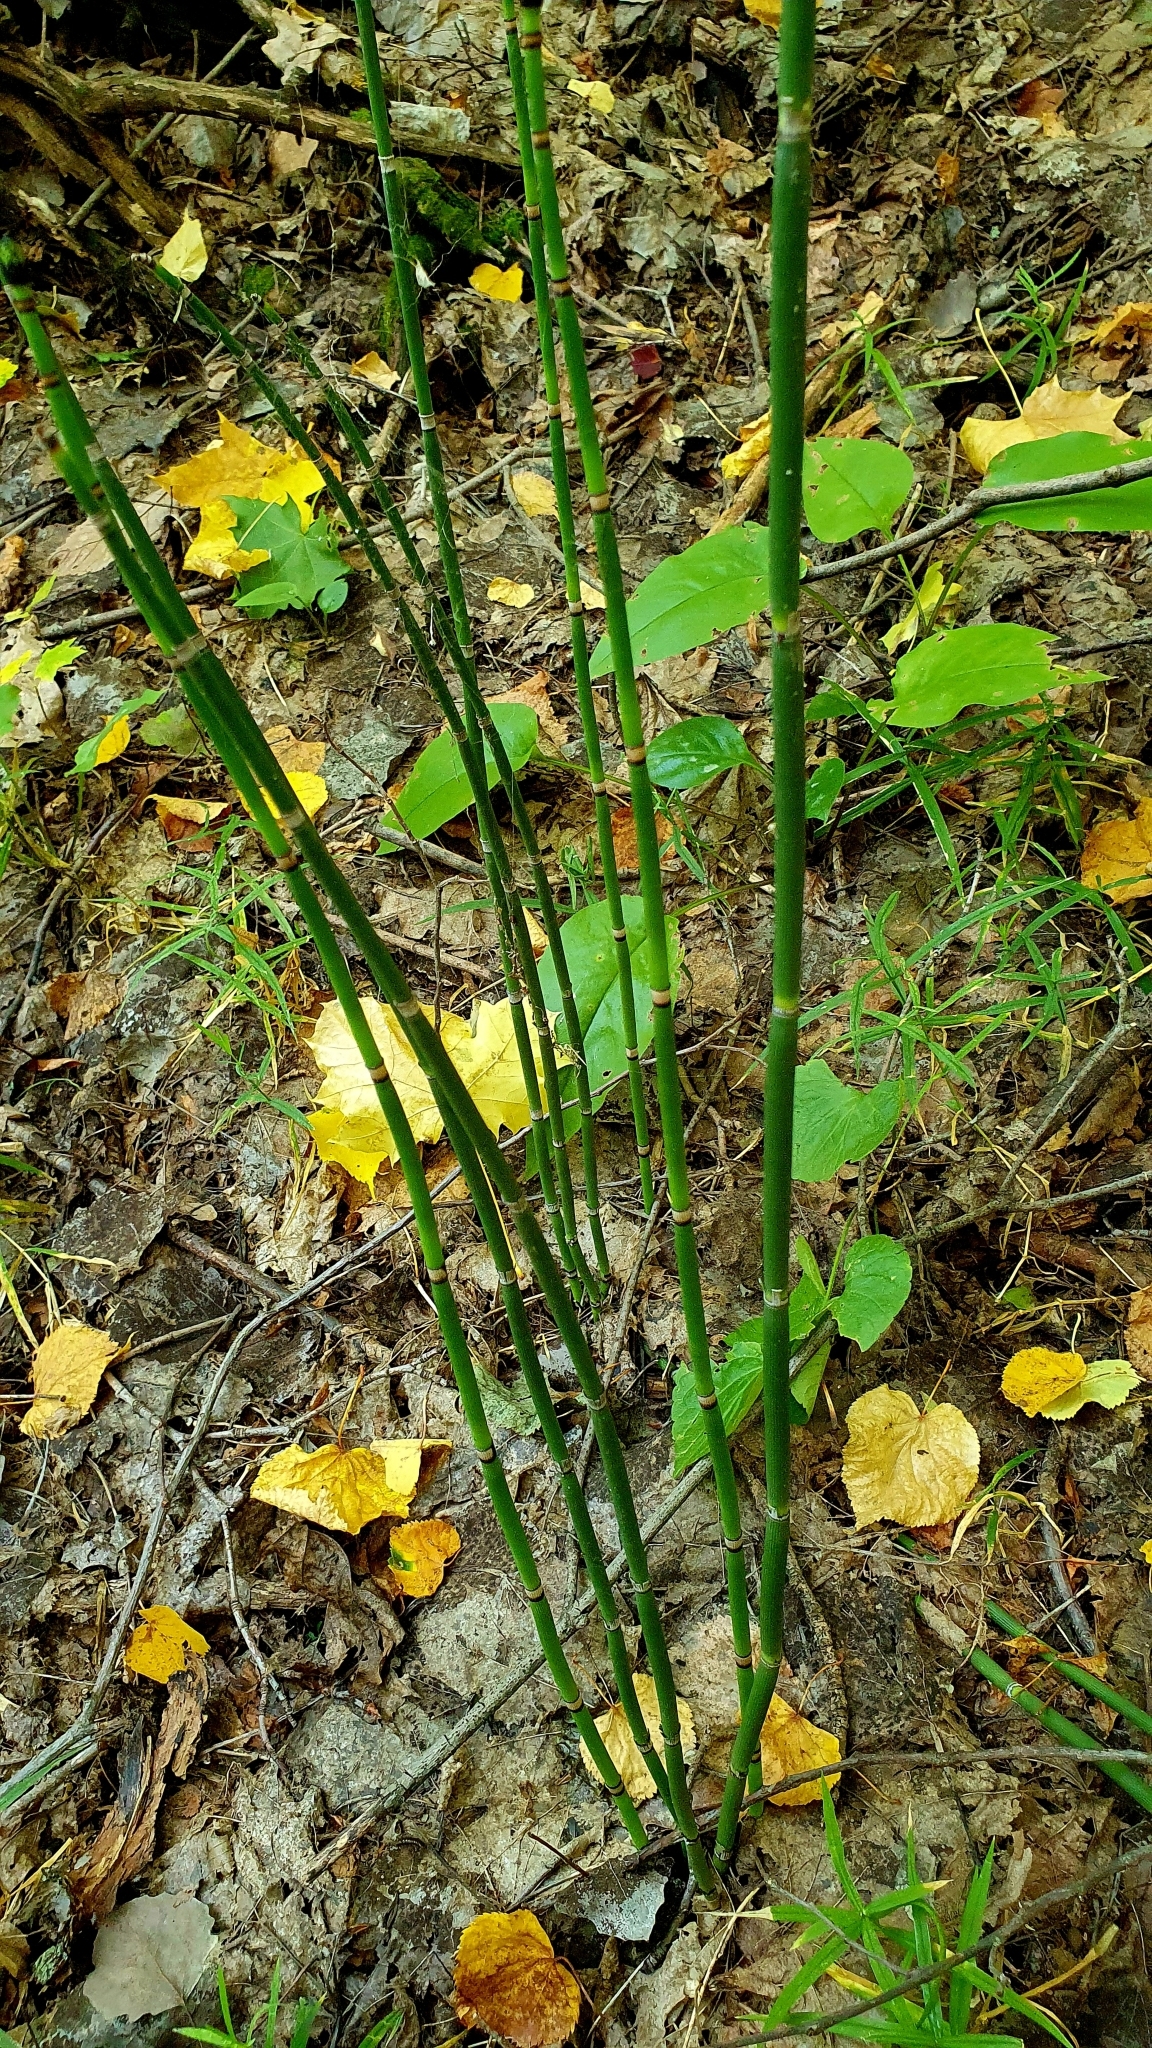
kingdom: Plantae
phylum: Tracheophyta
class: Polypodiopsida
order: Equisetales
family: Equisetaceae
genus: Equisetum
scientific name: Equisetum hyemale
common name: Rough horsetail
